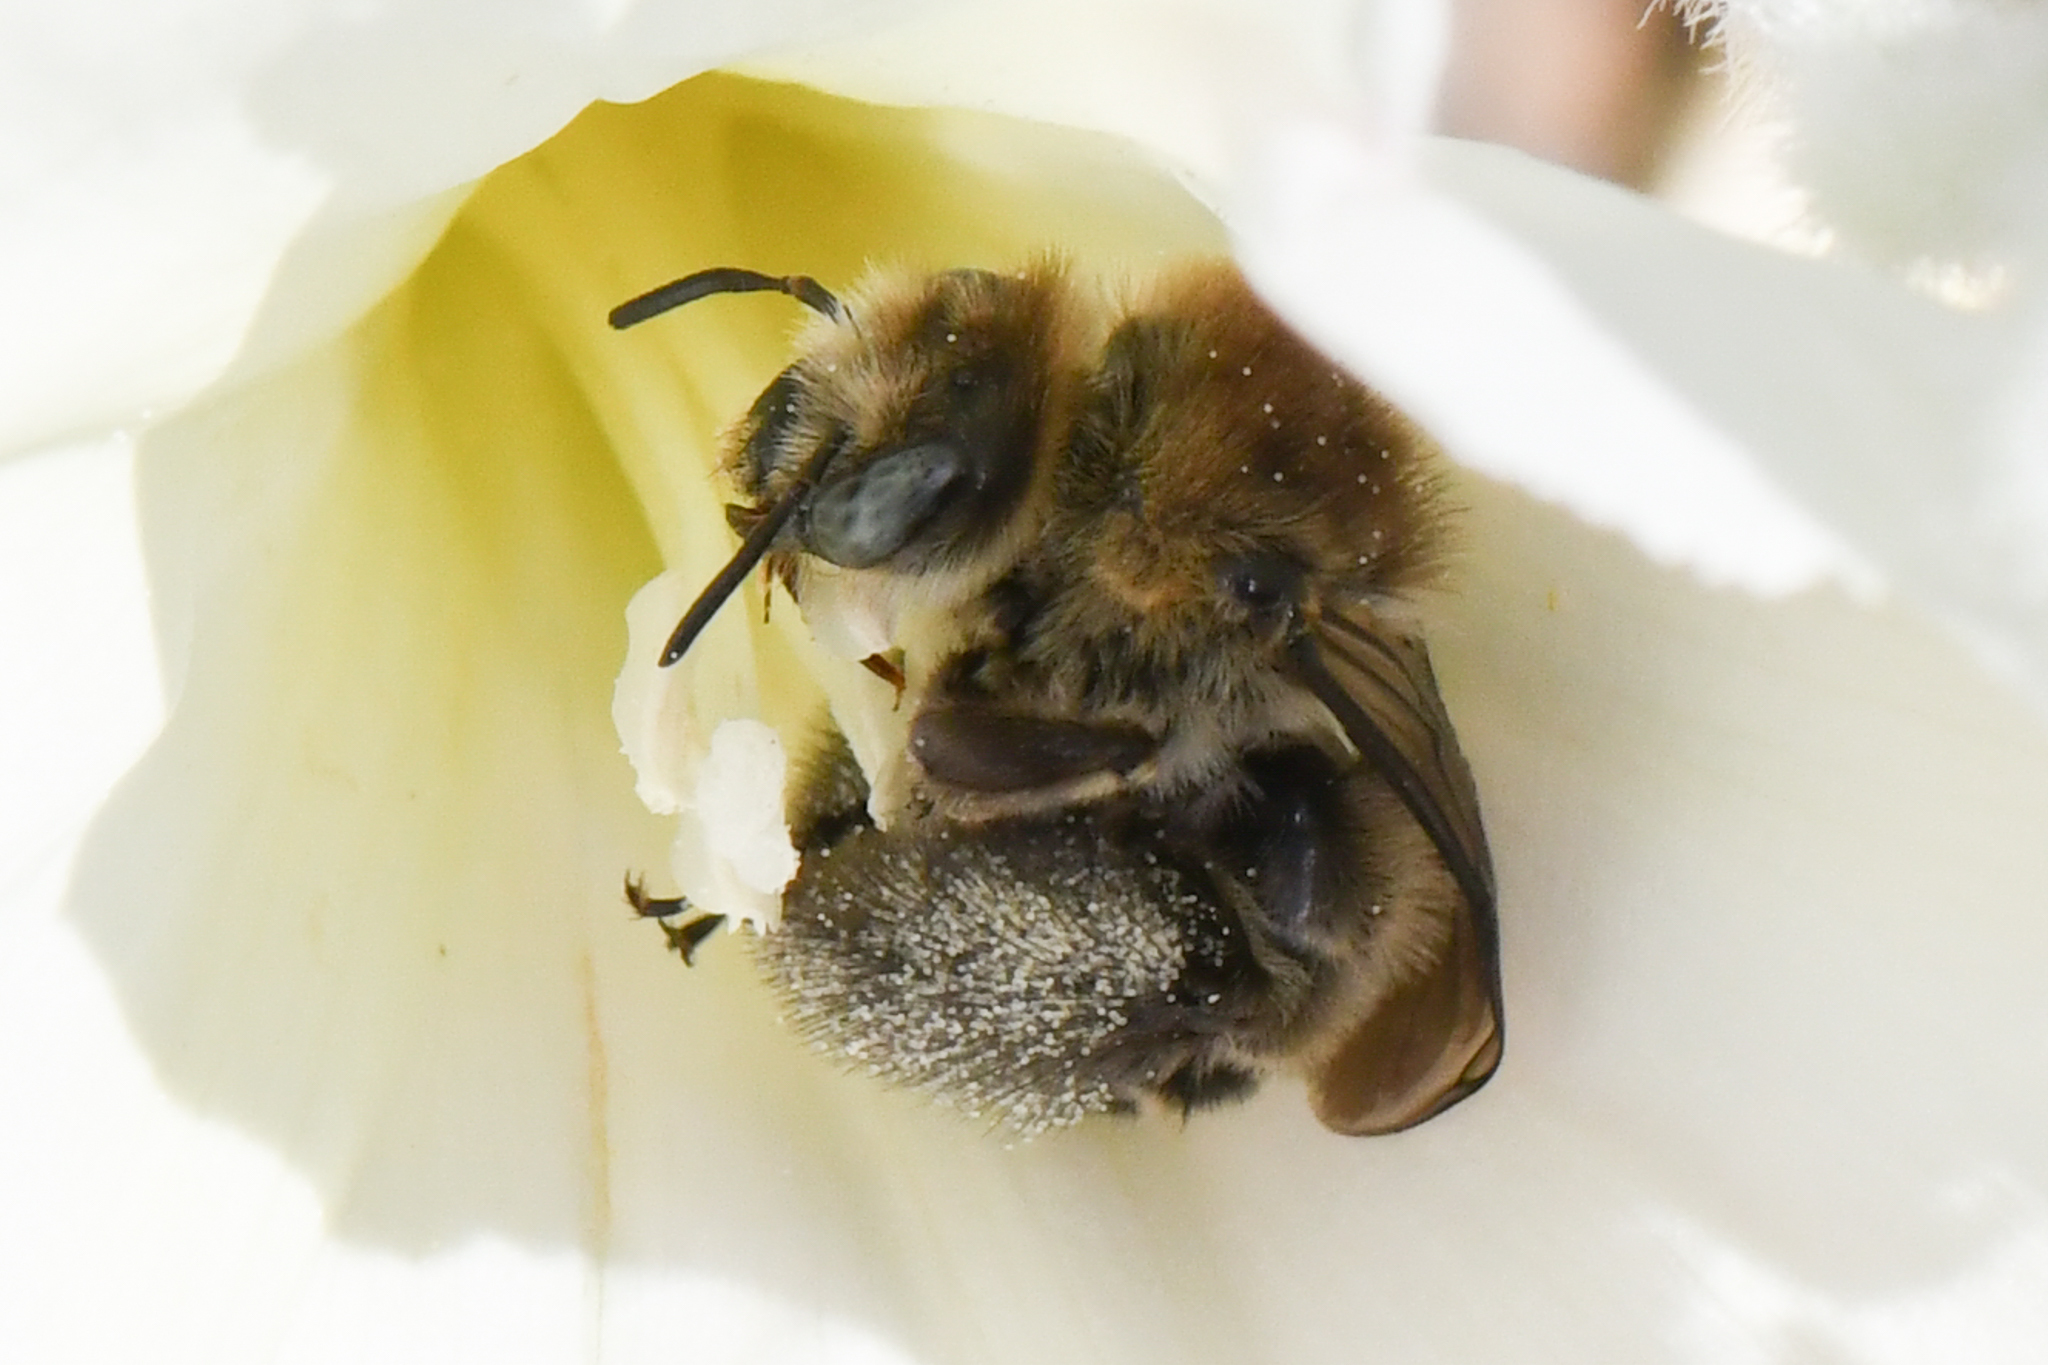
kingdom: Animalia
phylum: Arthropoda
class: Insecta
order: Hymenoptera
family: Apidae
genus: Diadasia
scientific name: Diadasia bituberculata
